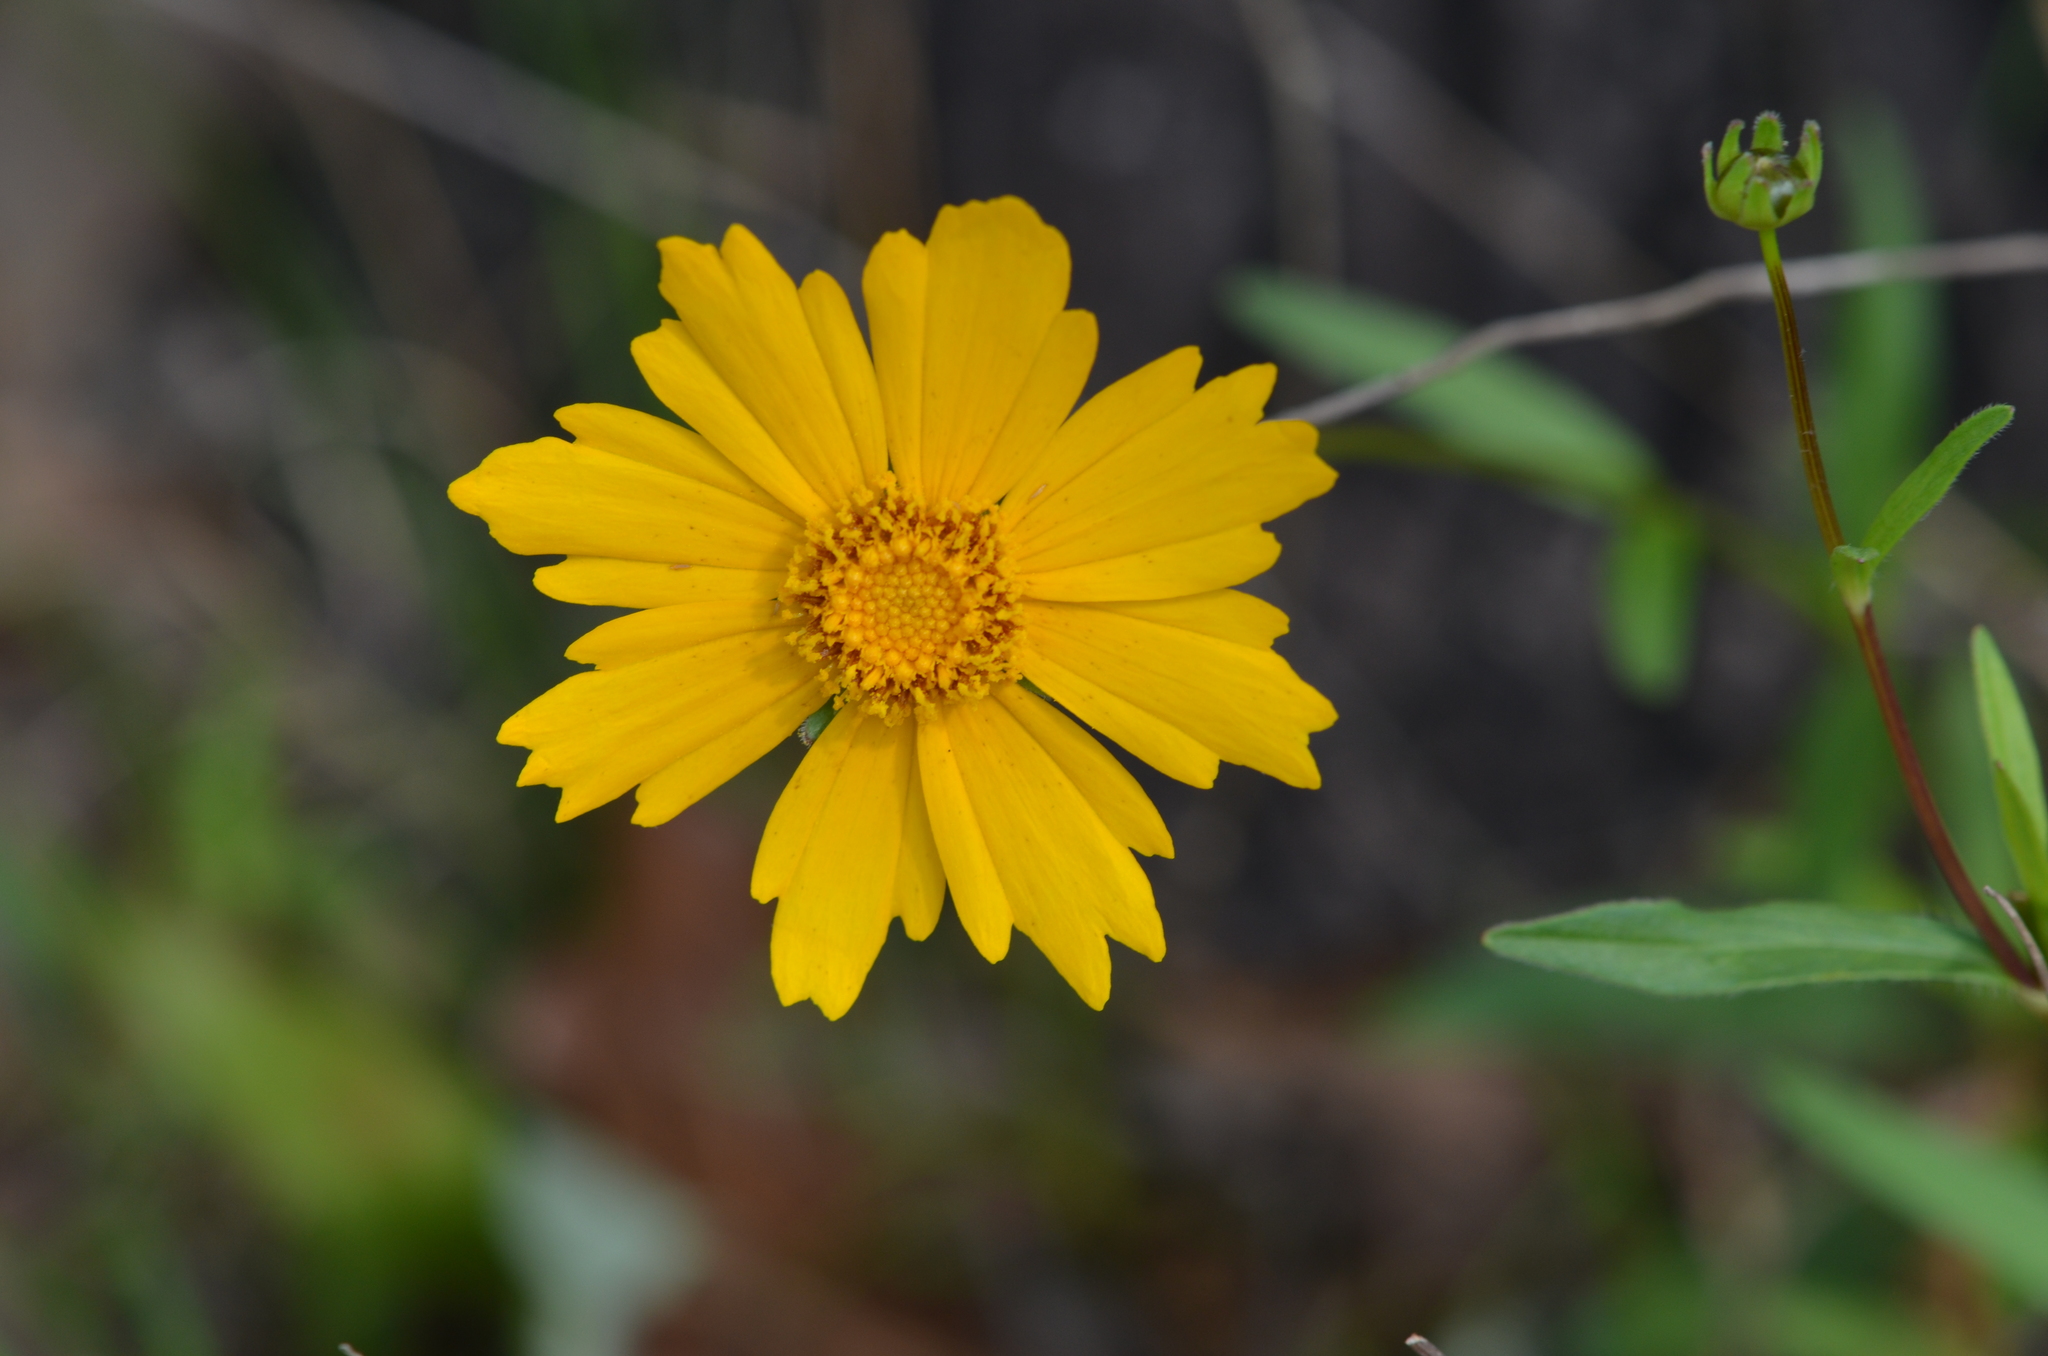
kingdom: Plantae
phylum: Tracheophyta
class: Magnoliopsida
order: Asterales
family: Asteraceae
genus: Coreopsis
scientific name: Coreopsis lanceolata
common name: Garden coreopsis
